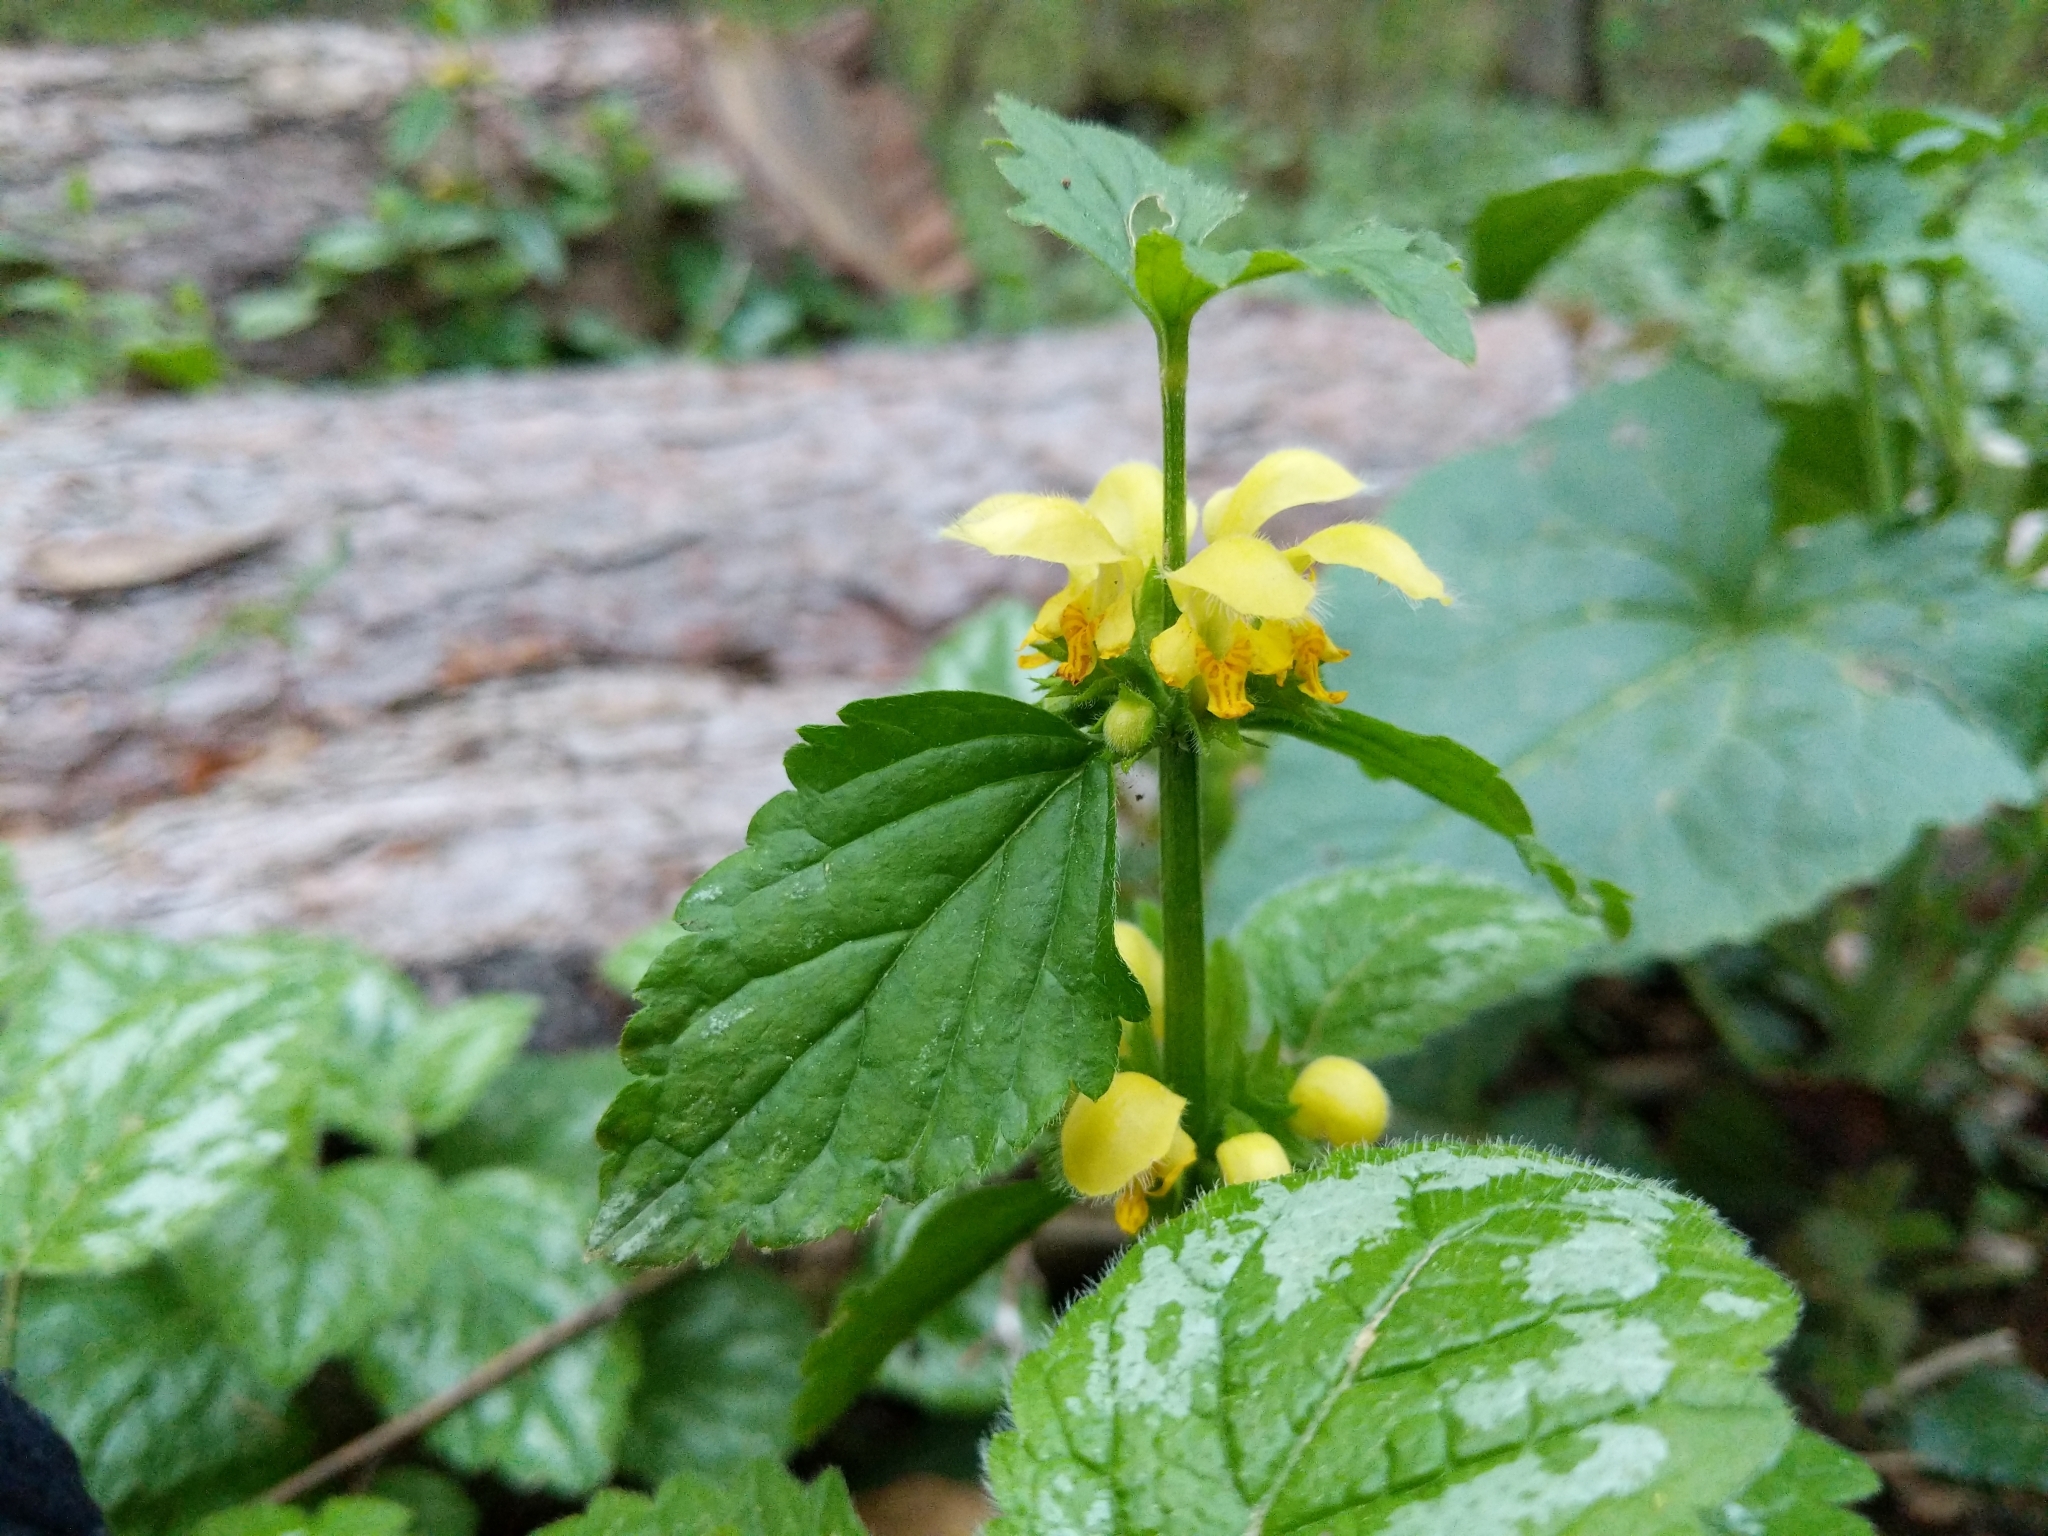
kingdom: Plantae
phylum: Tracheophyta
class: Magnoliopsida
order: Lamiales
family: Lamiaceae
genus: Lamium
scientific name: Lamium galeobdolon
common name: Yellow archangel
